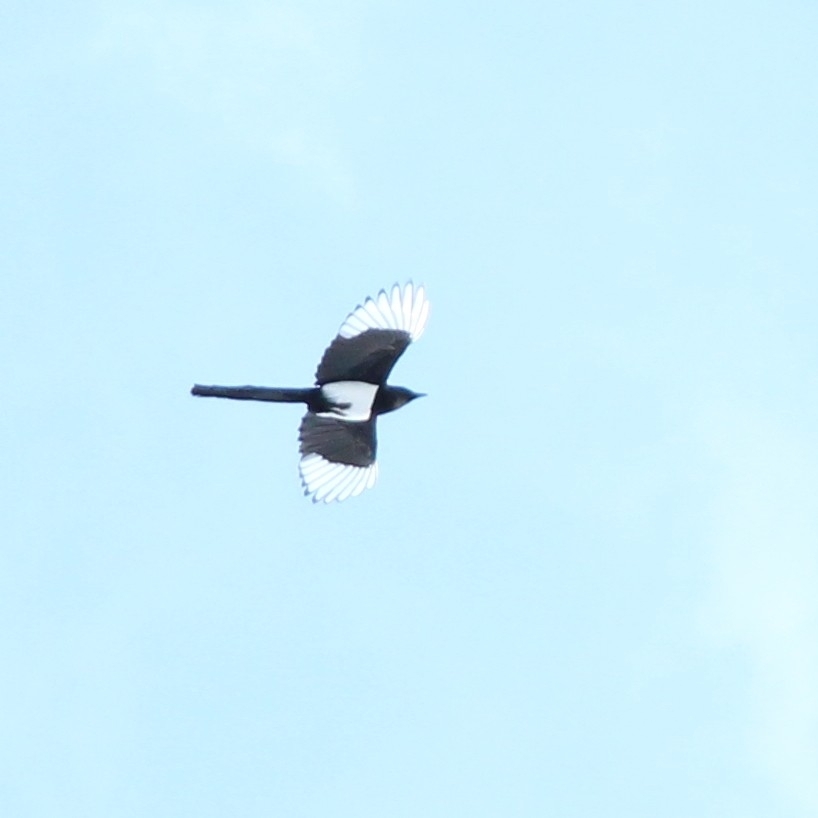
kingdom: Animalia
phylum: Chordata
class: Aves
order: Passeriformes
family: Corvidae
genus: Pica
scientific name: Pica pica
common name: Eurasian magpie
